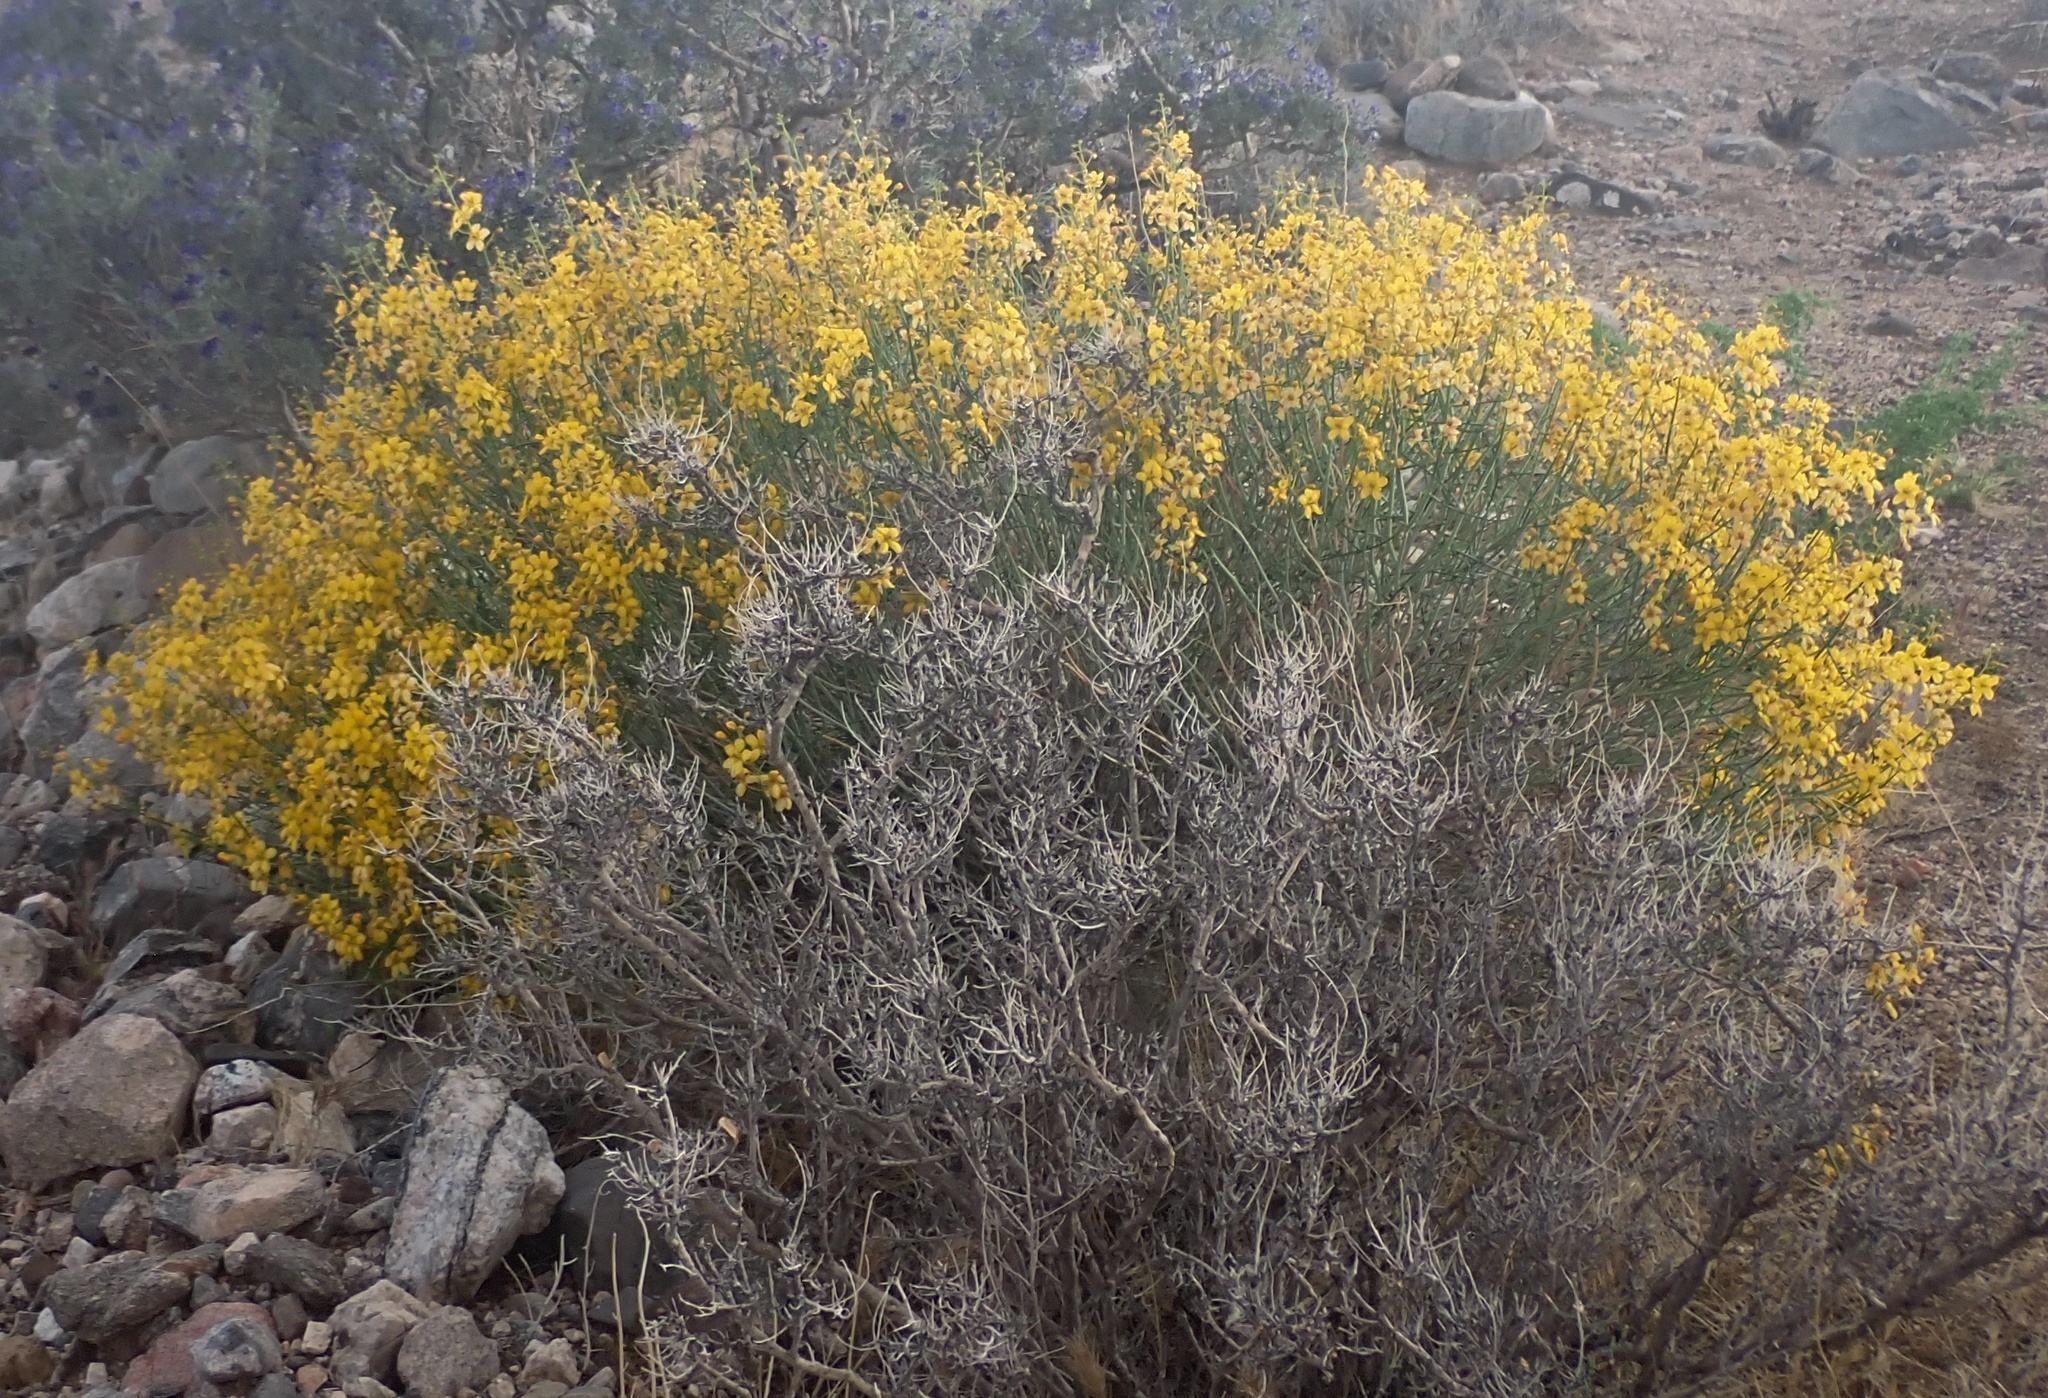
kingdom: Plantae
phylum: Tracheophyta
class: Magnoliopsida
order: Fabales
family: Fabaceae
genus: Senna
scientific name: Senna armata
